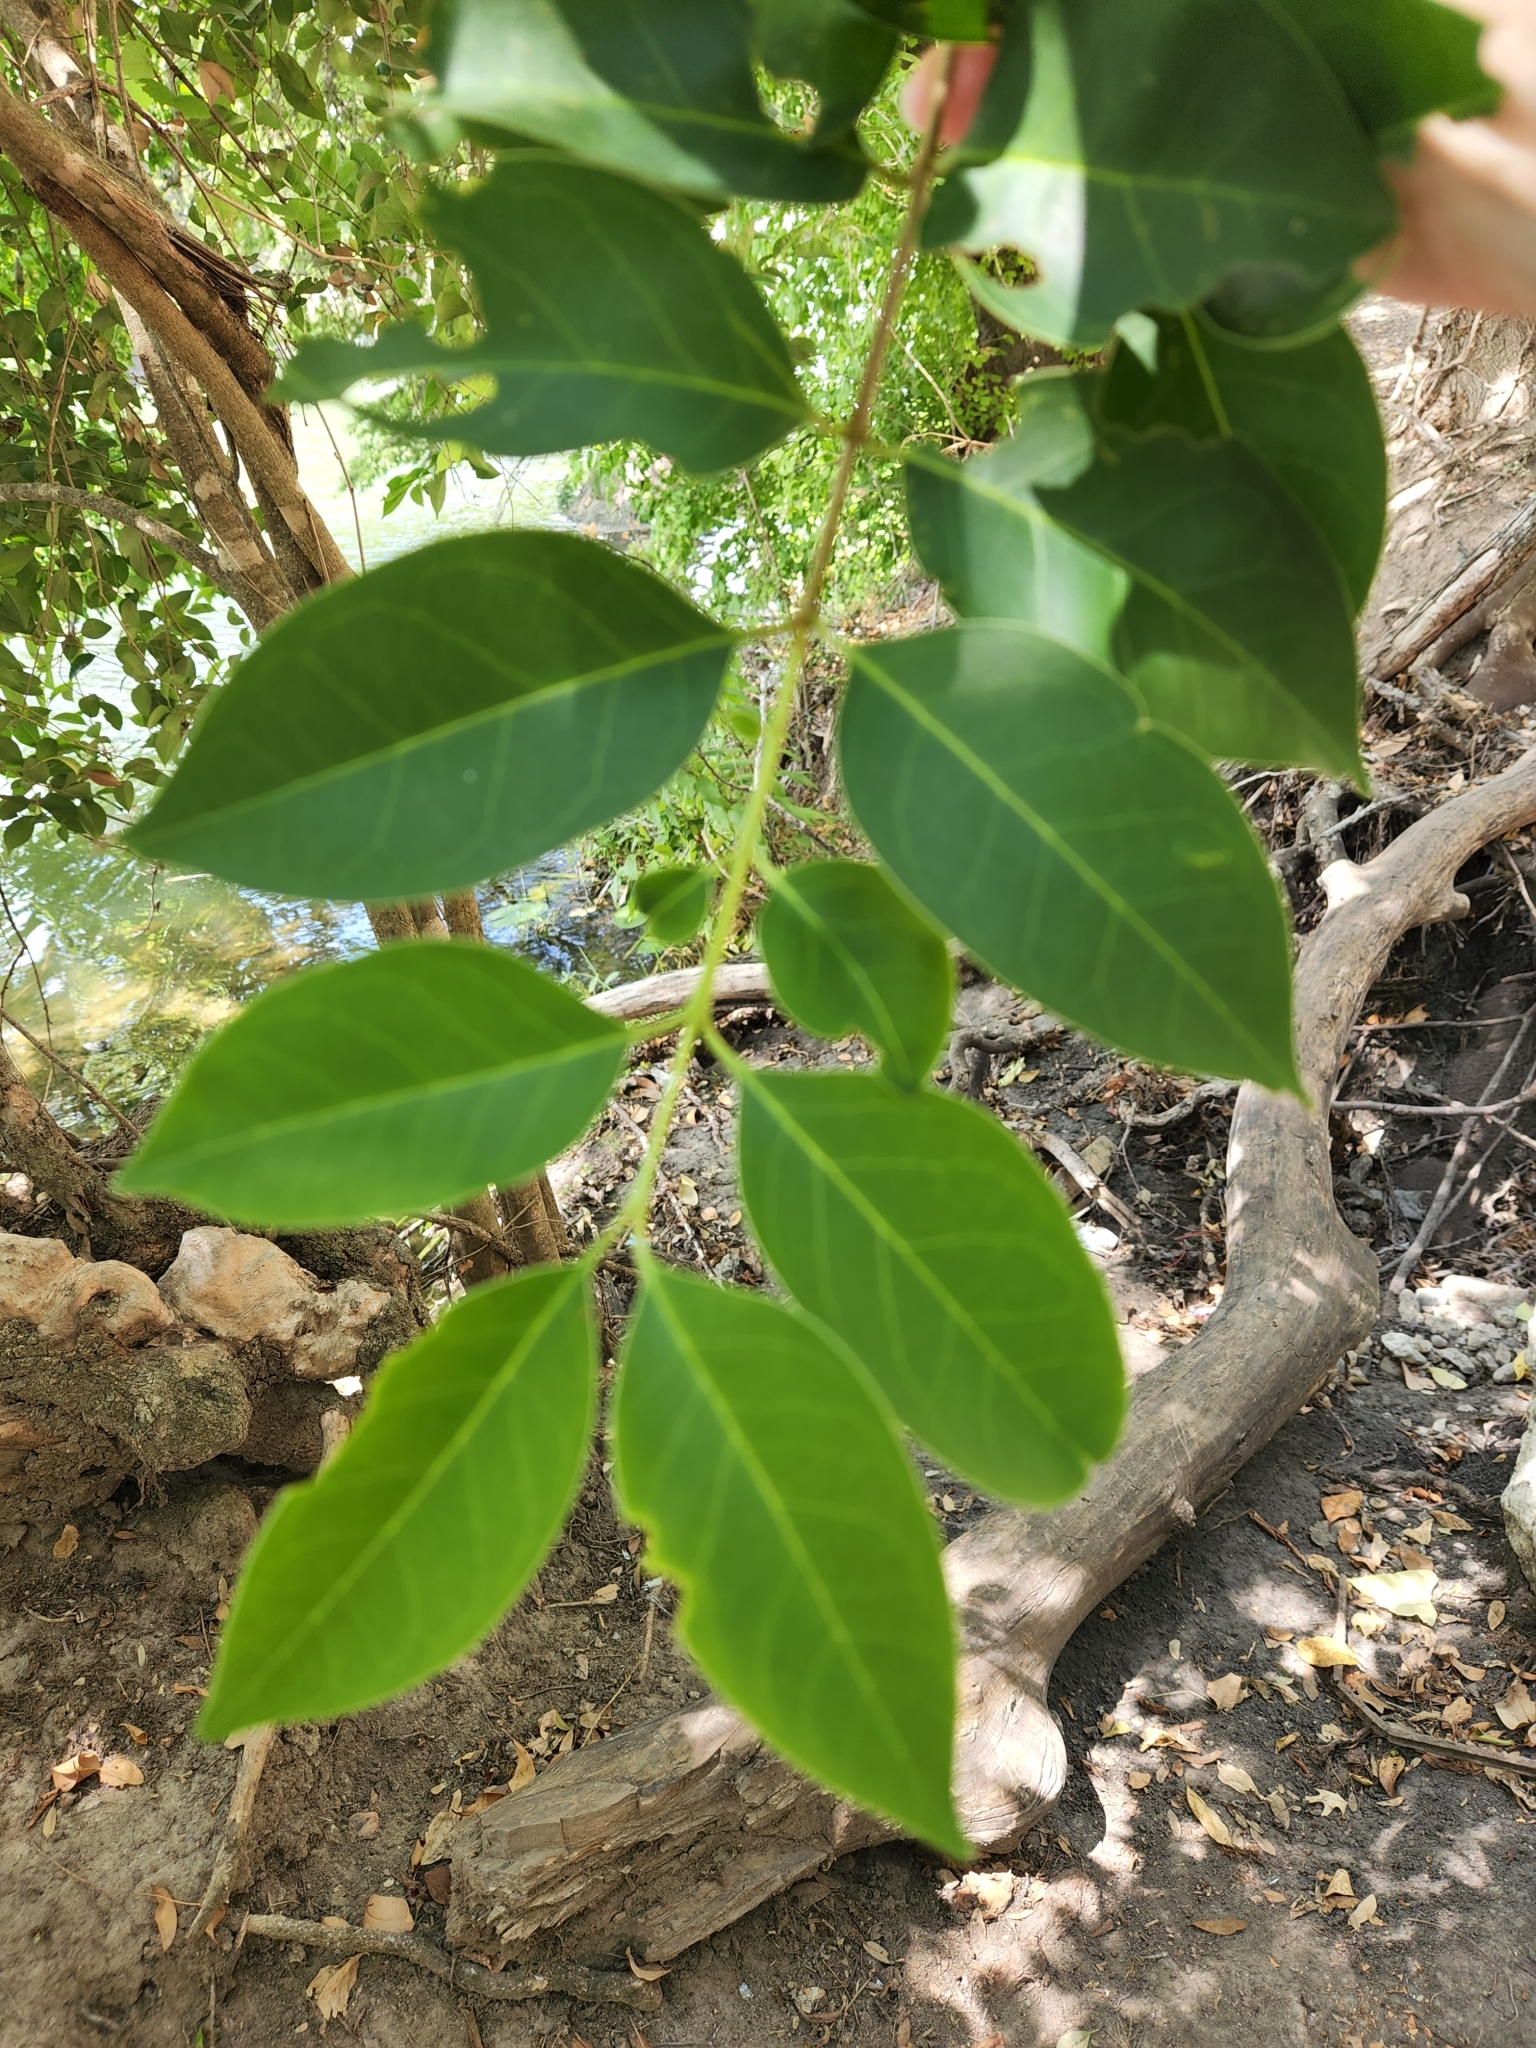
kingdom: Plantae
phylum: Tracheophyta
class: Magnoliopsida
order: Lamiales
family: Oleaceae
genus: Ligustrum
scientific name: Ligustrum lucidum
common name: Glossy privet
